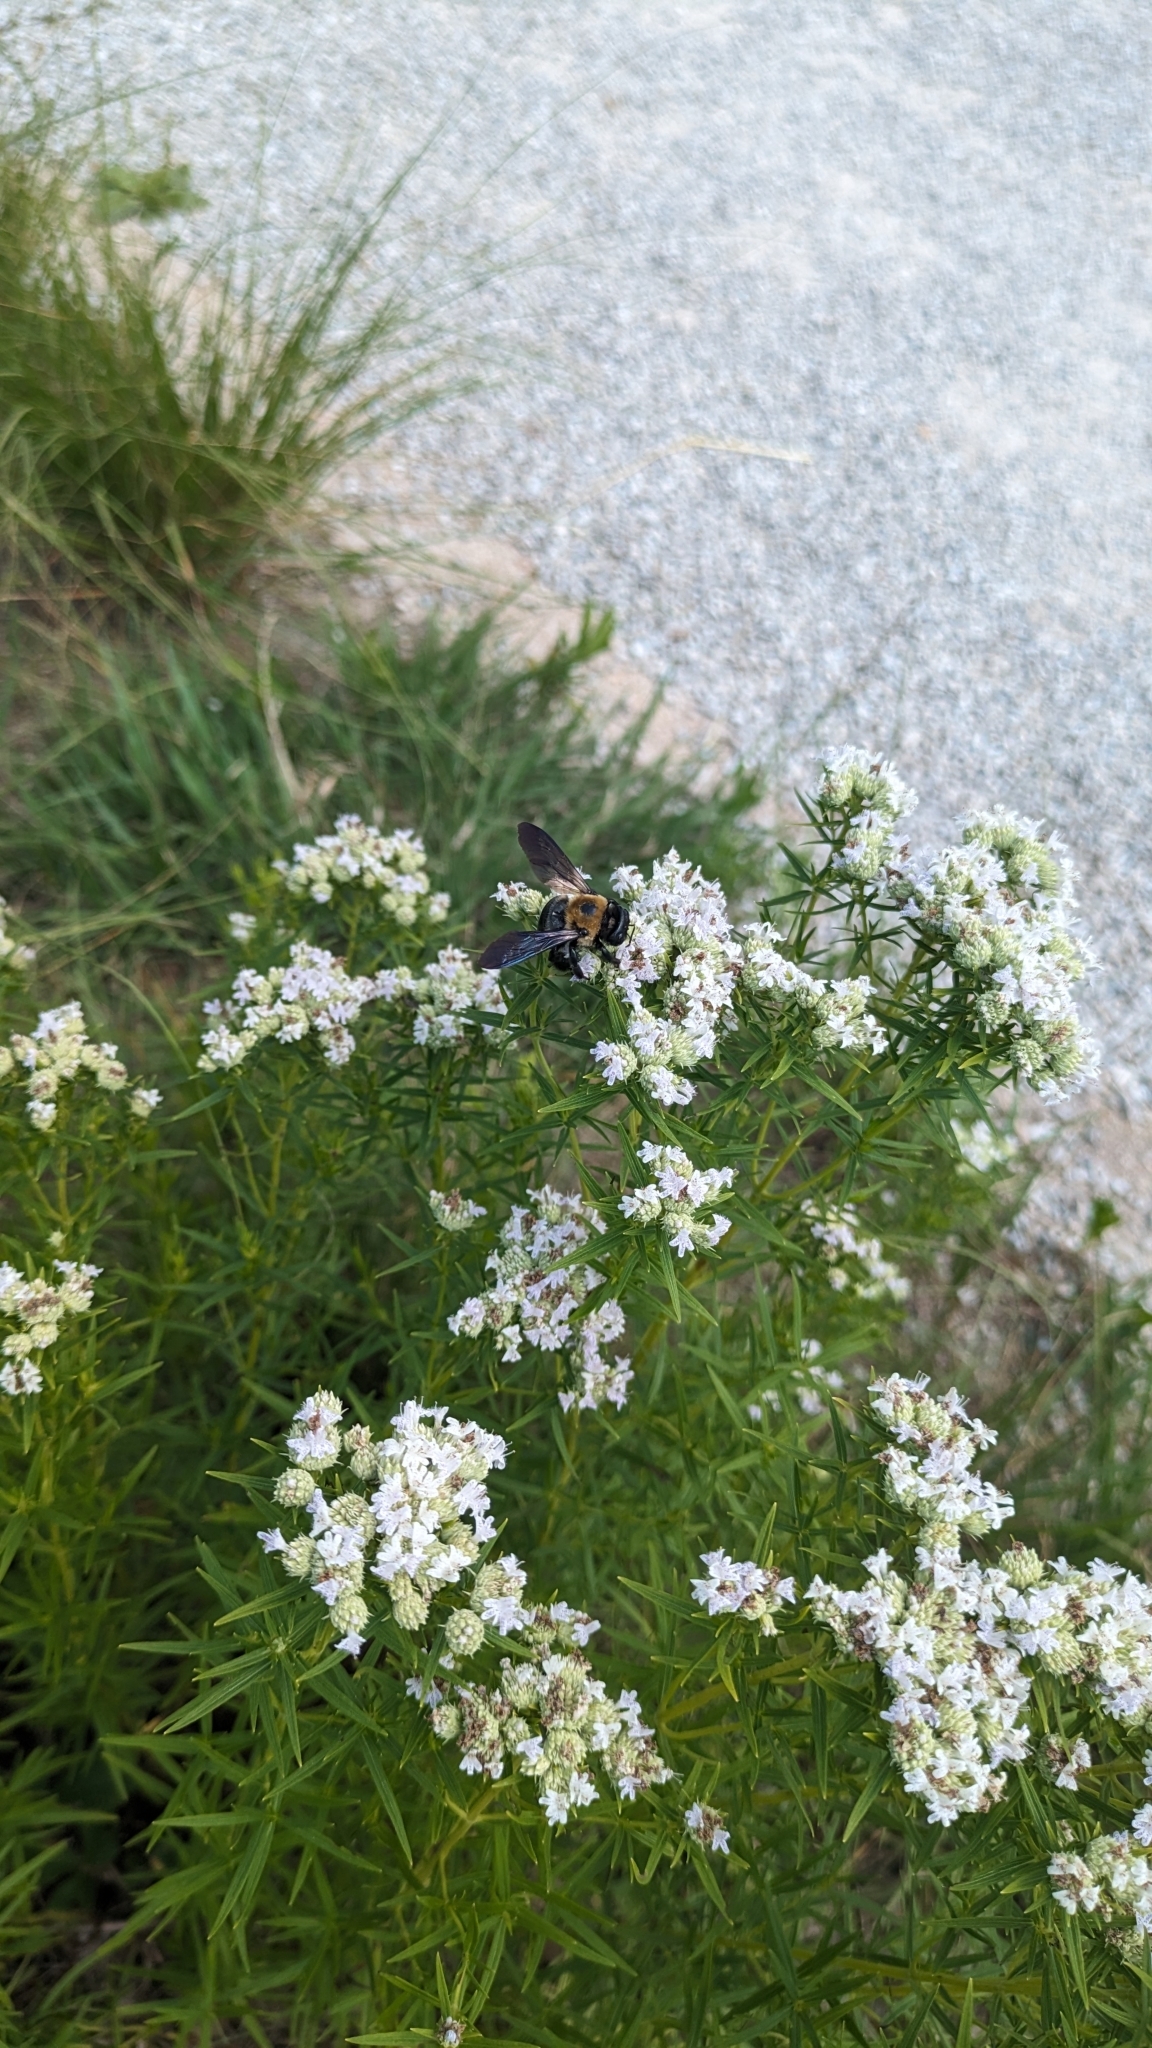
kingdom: Animalia
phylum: Arthropoda
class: Insecta
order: Hymenoptera
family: Apidae
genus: Xylocopa
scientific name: Xylocopa virginica
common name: Carpenter bee
